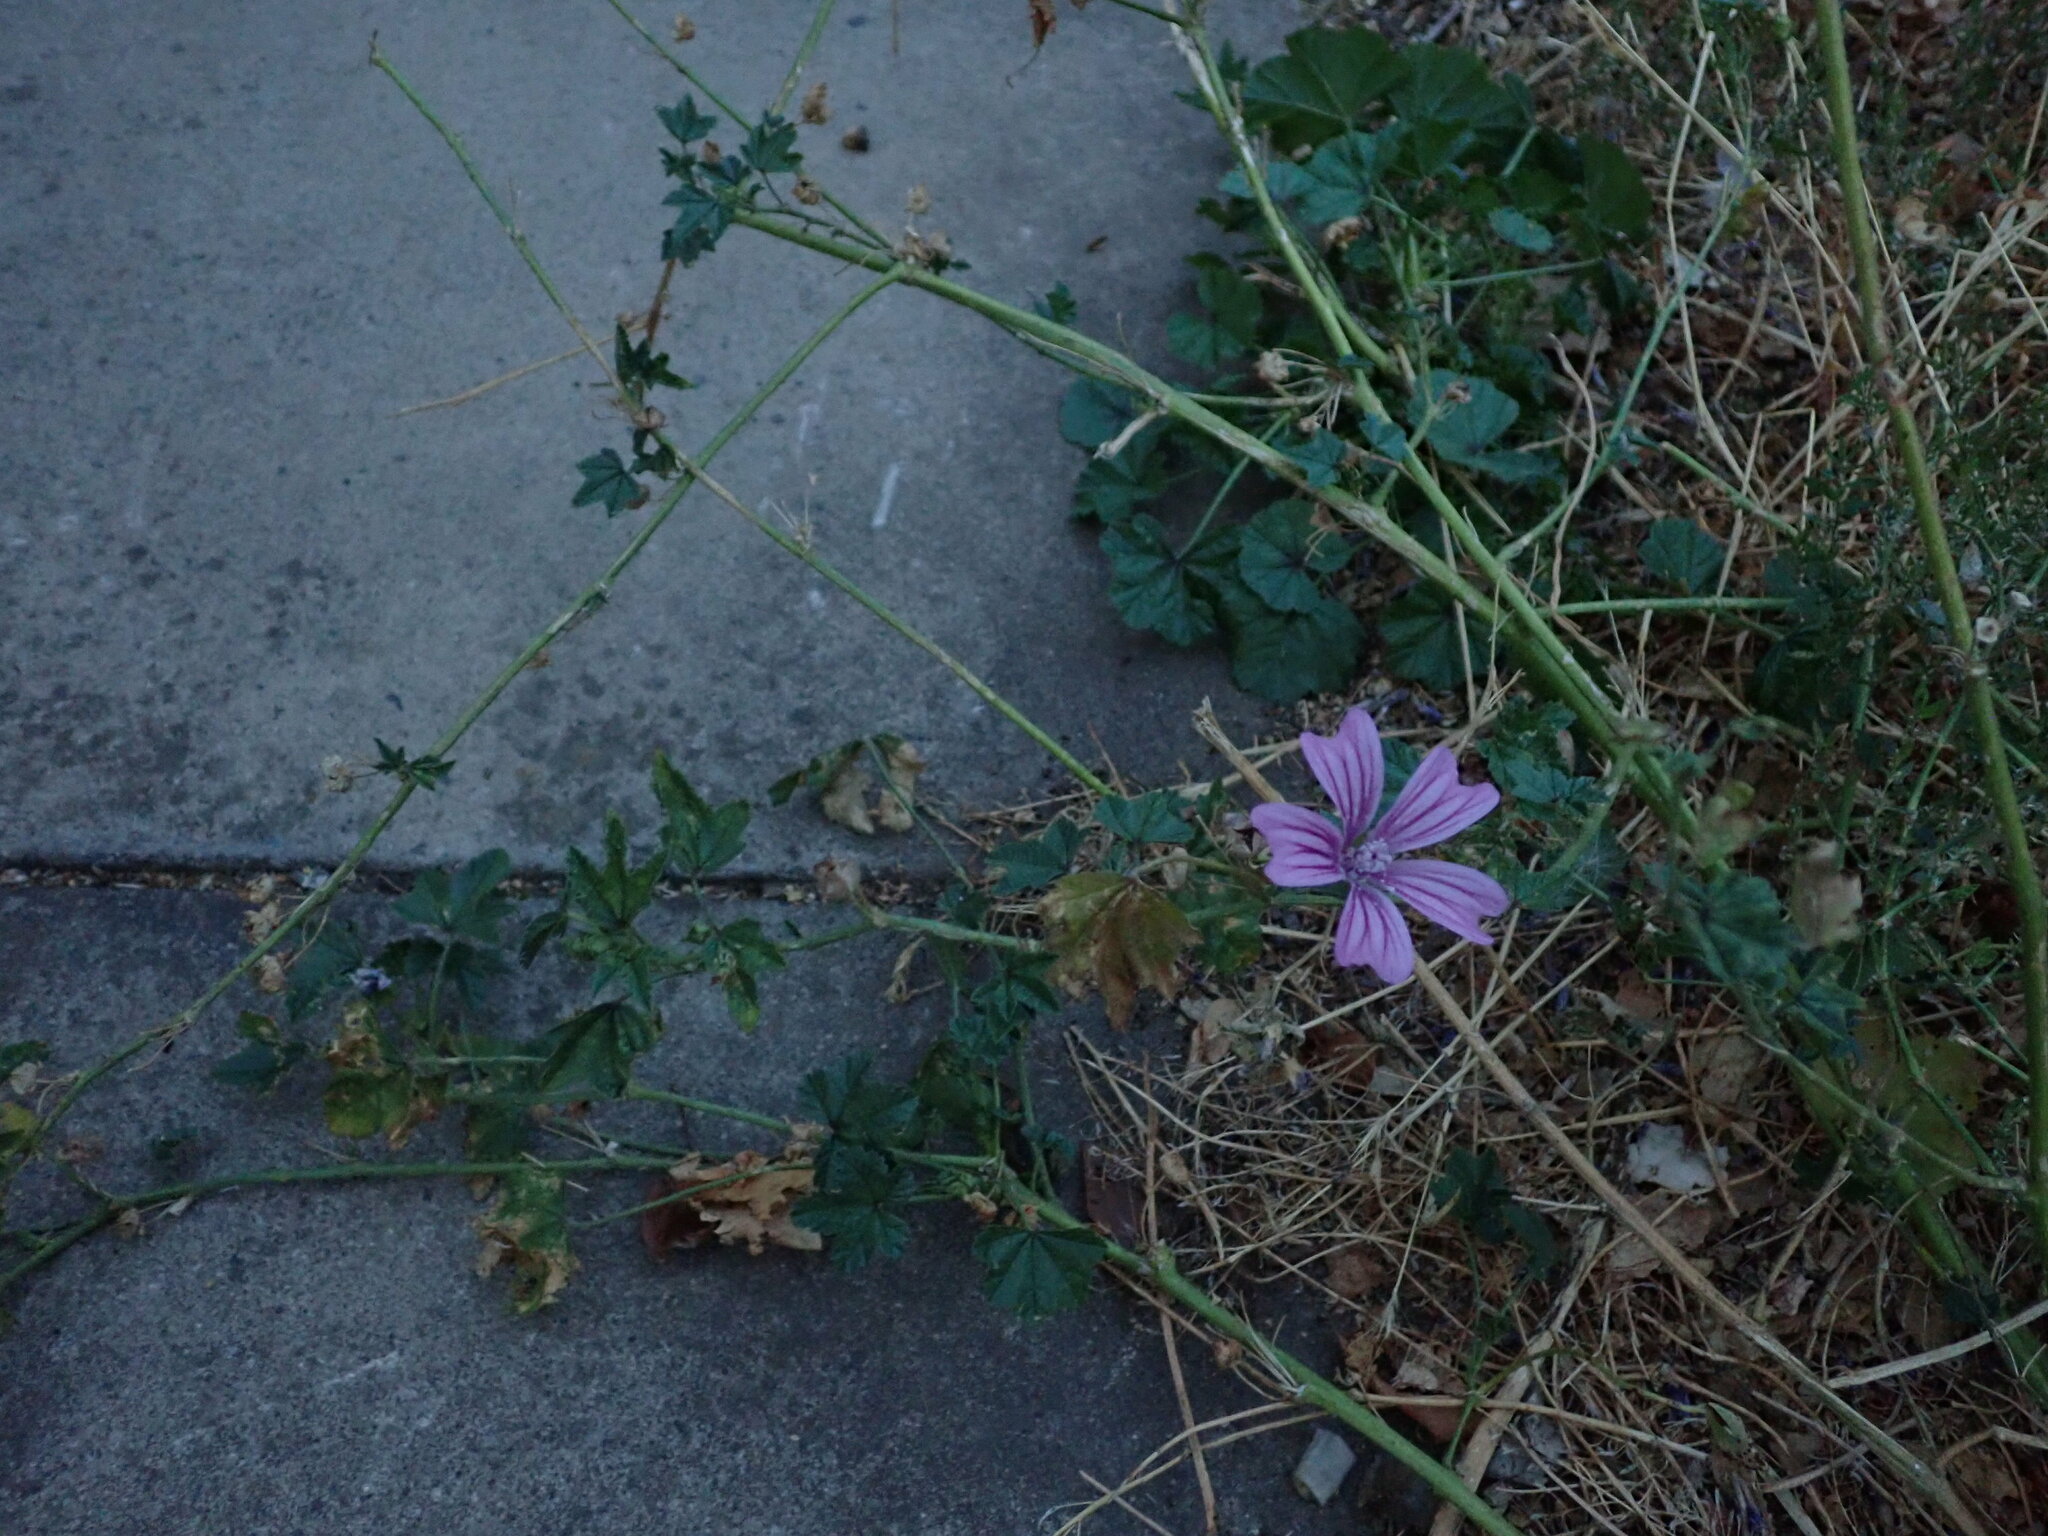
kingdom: Plantae
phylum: Tracheophyta
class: Magnoliopsida
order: Malvales
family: Malvaceae
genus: Malva
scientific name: Malva sylvestris
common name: Common mallow
